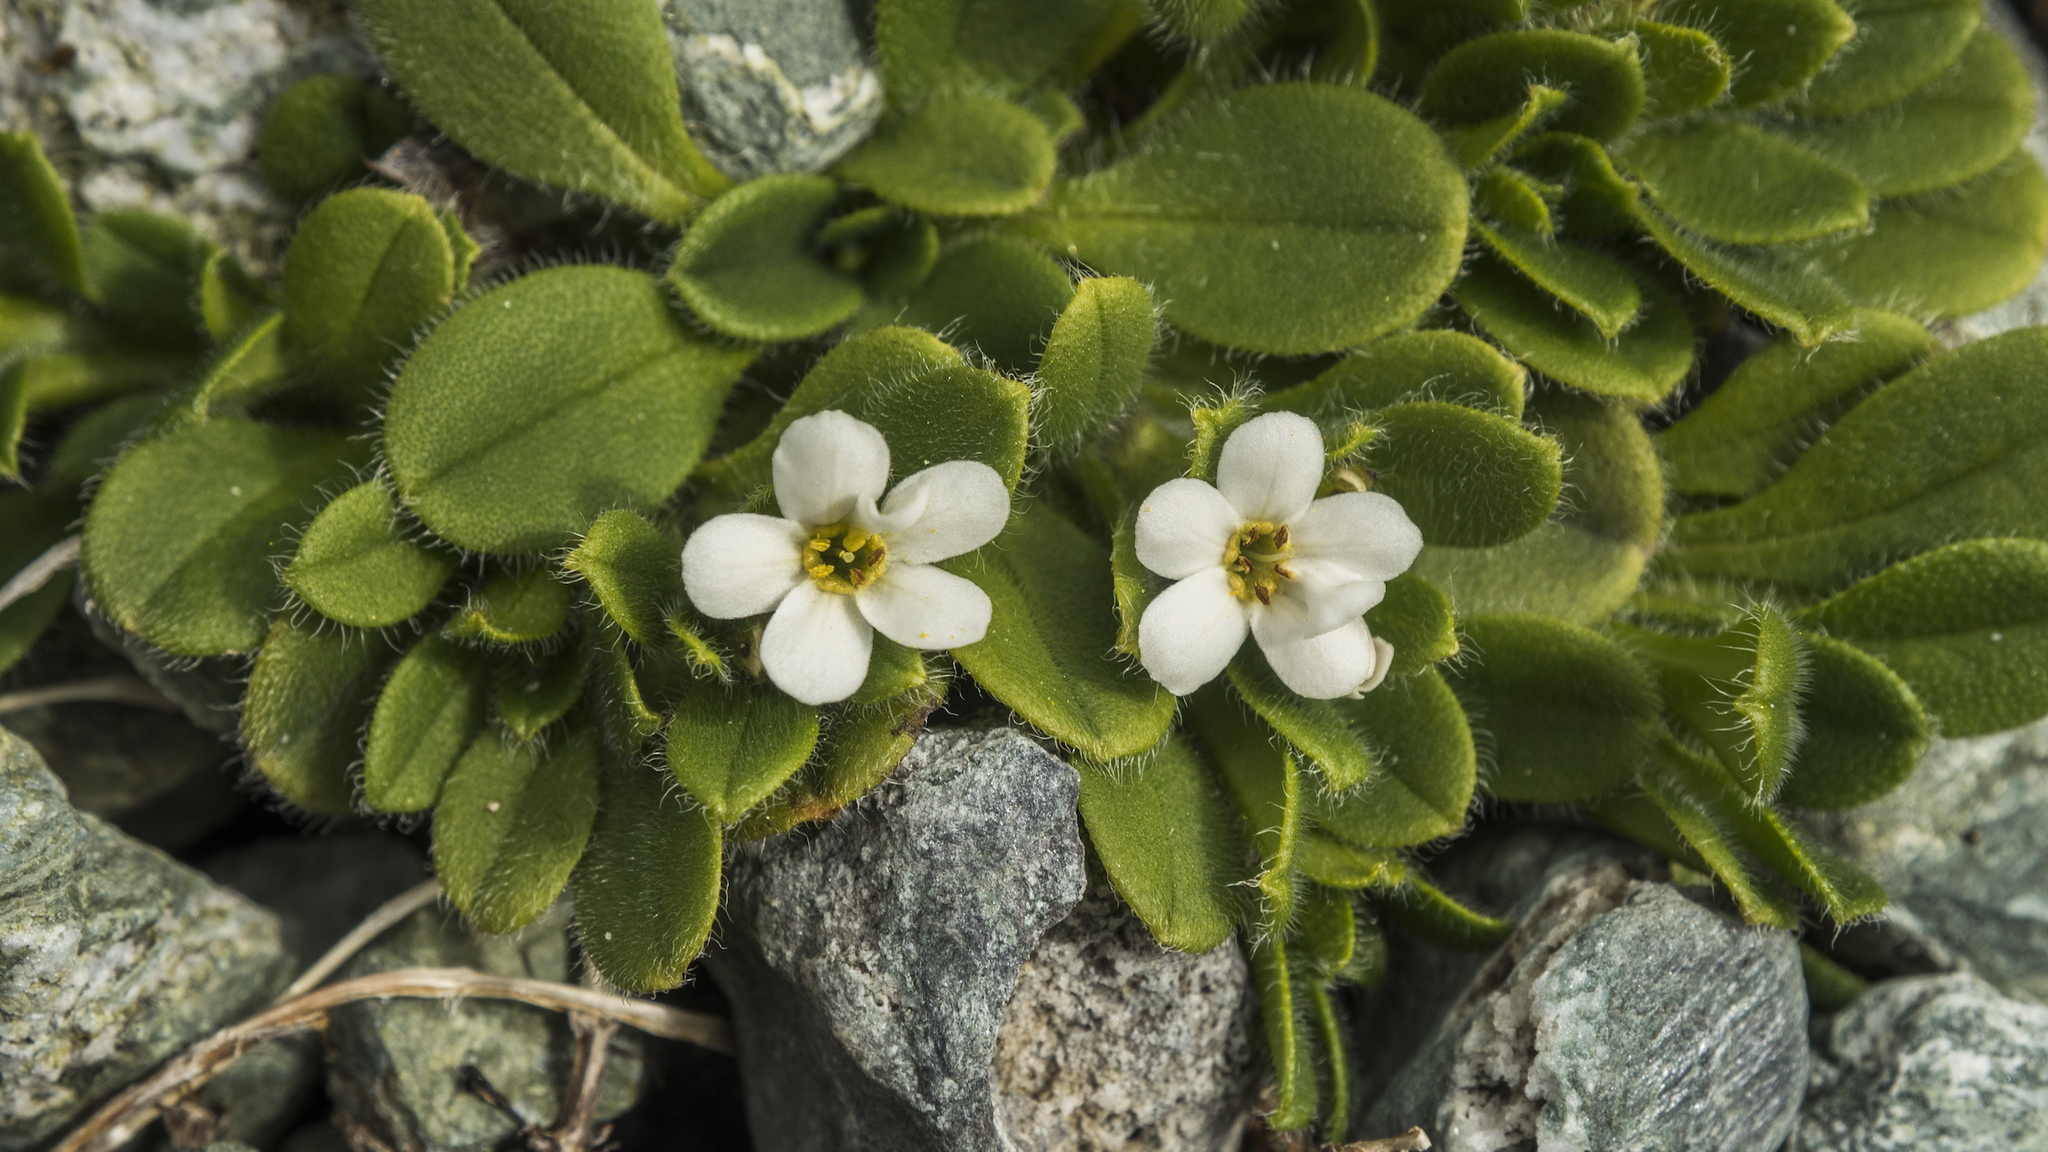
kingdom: Plantae
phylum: Tracheophyta
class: Magnoliopsida
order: Boraginales
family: Boraginaceae
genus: Myosotis
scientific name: Myosotis lyallii
